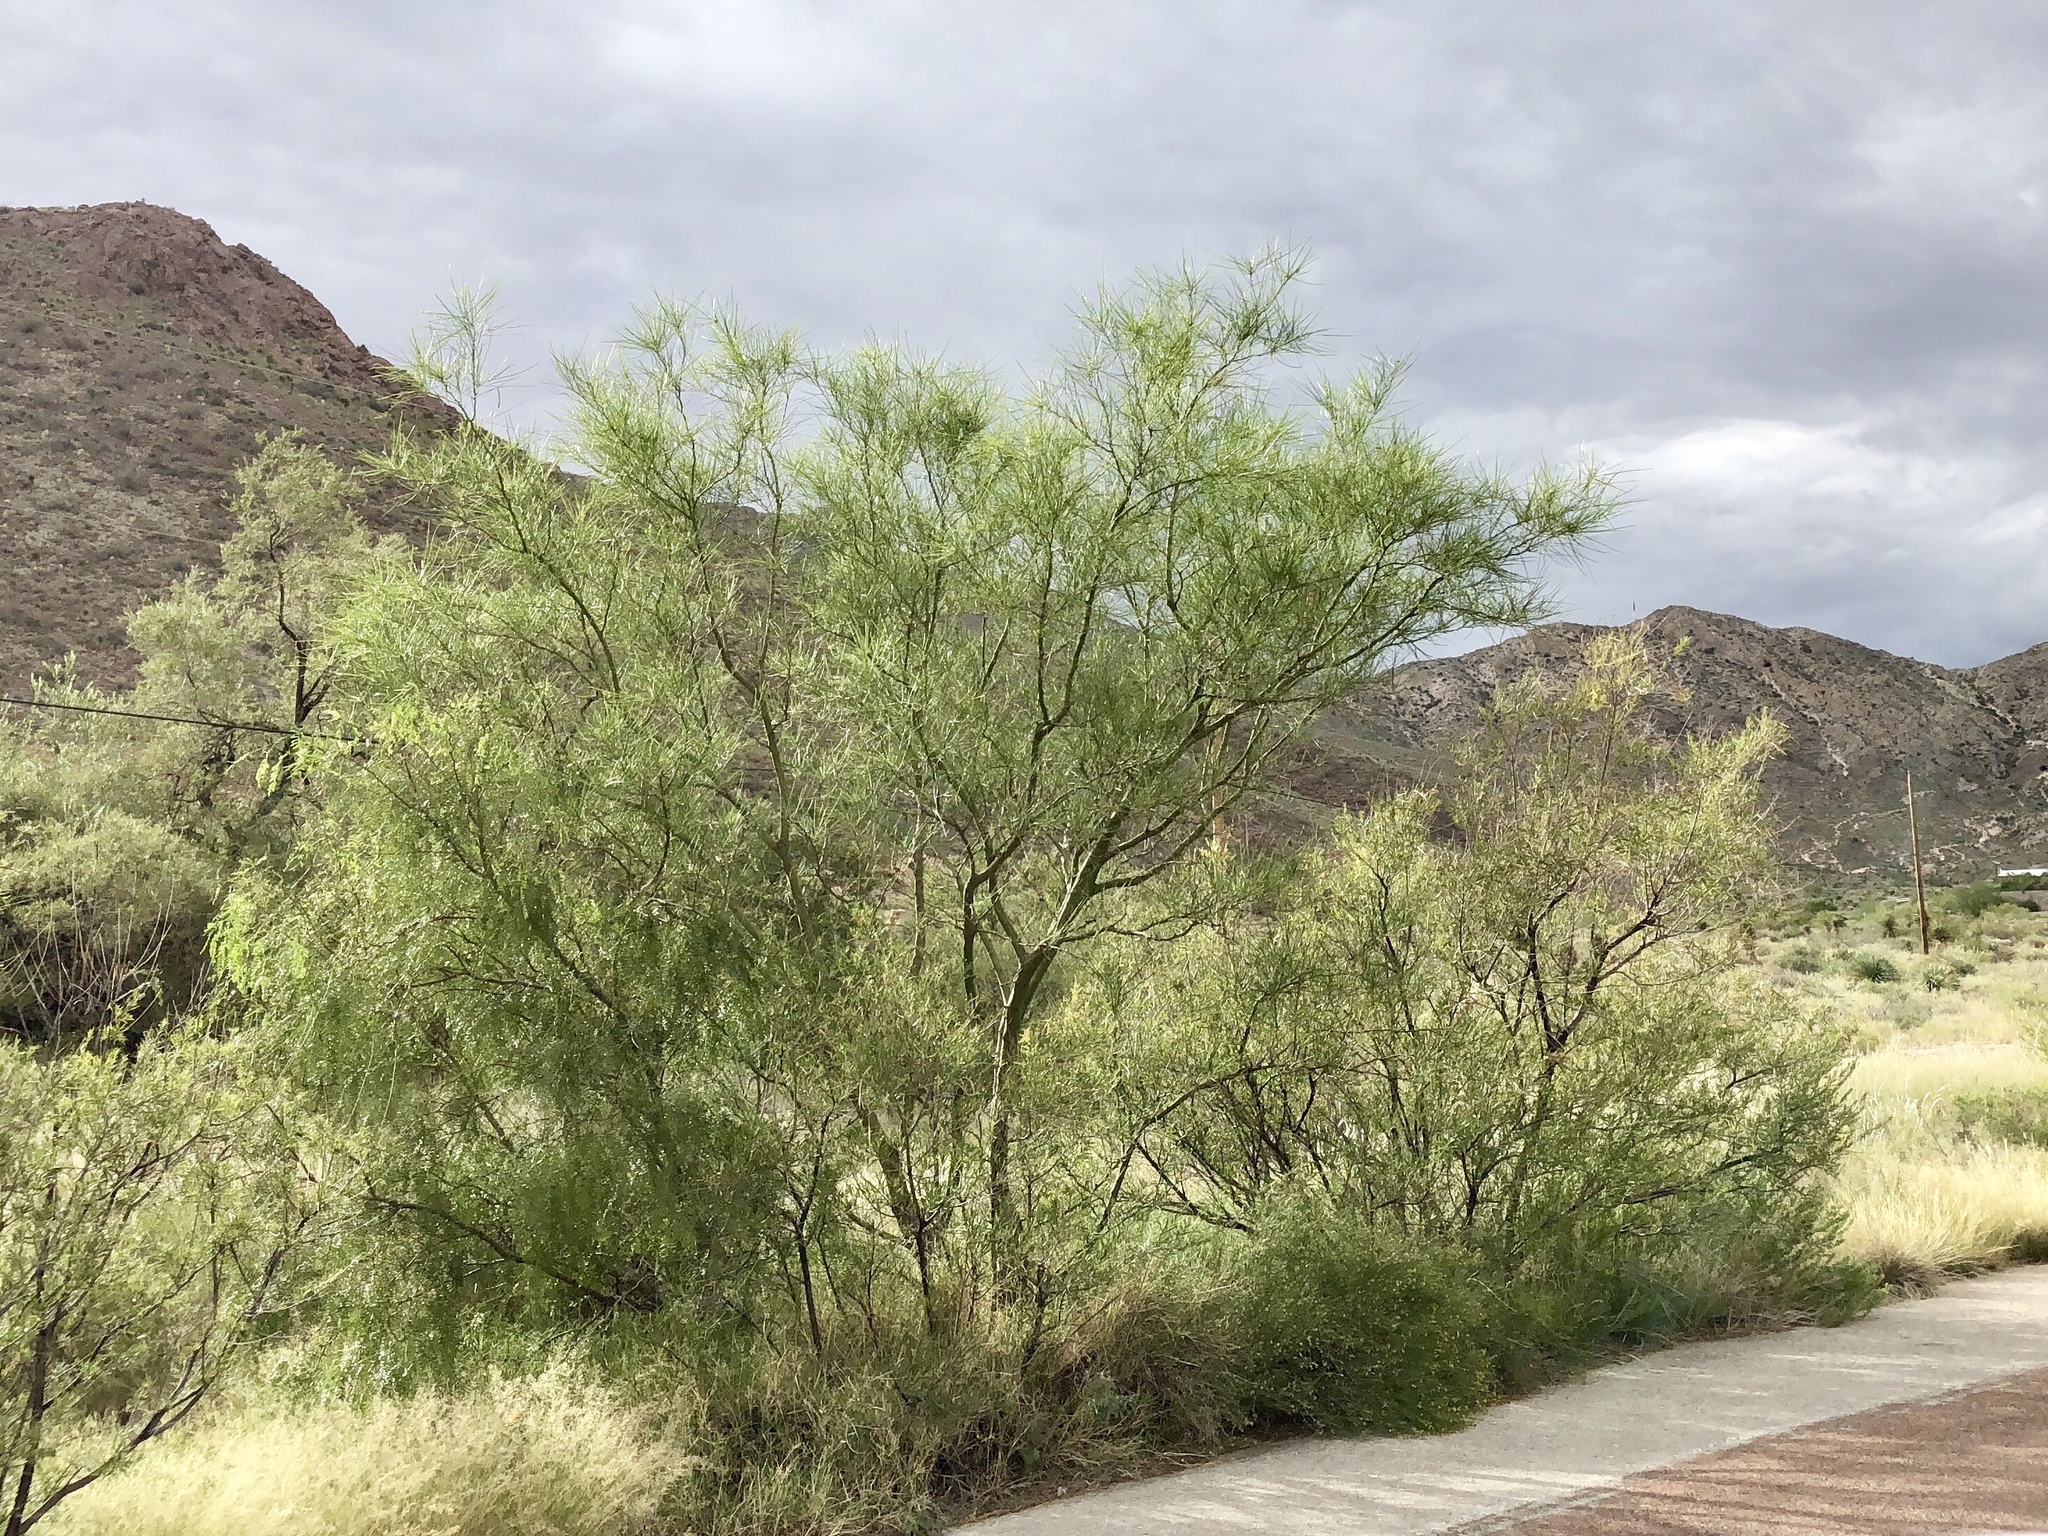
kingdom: Plantae
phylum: Tracheophyta
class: Magnoliopsida
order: Fabales
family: Fabaceae
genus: Parkinsonia
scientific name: Parkinsonia aculeata
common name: Jerusalem thorn
